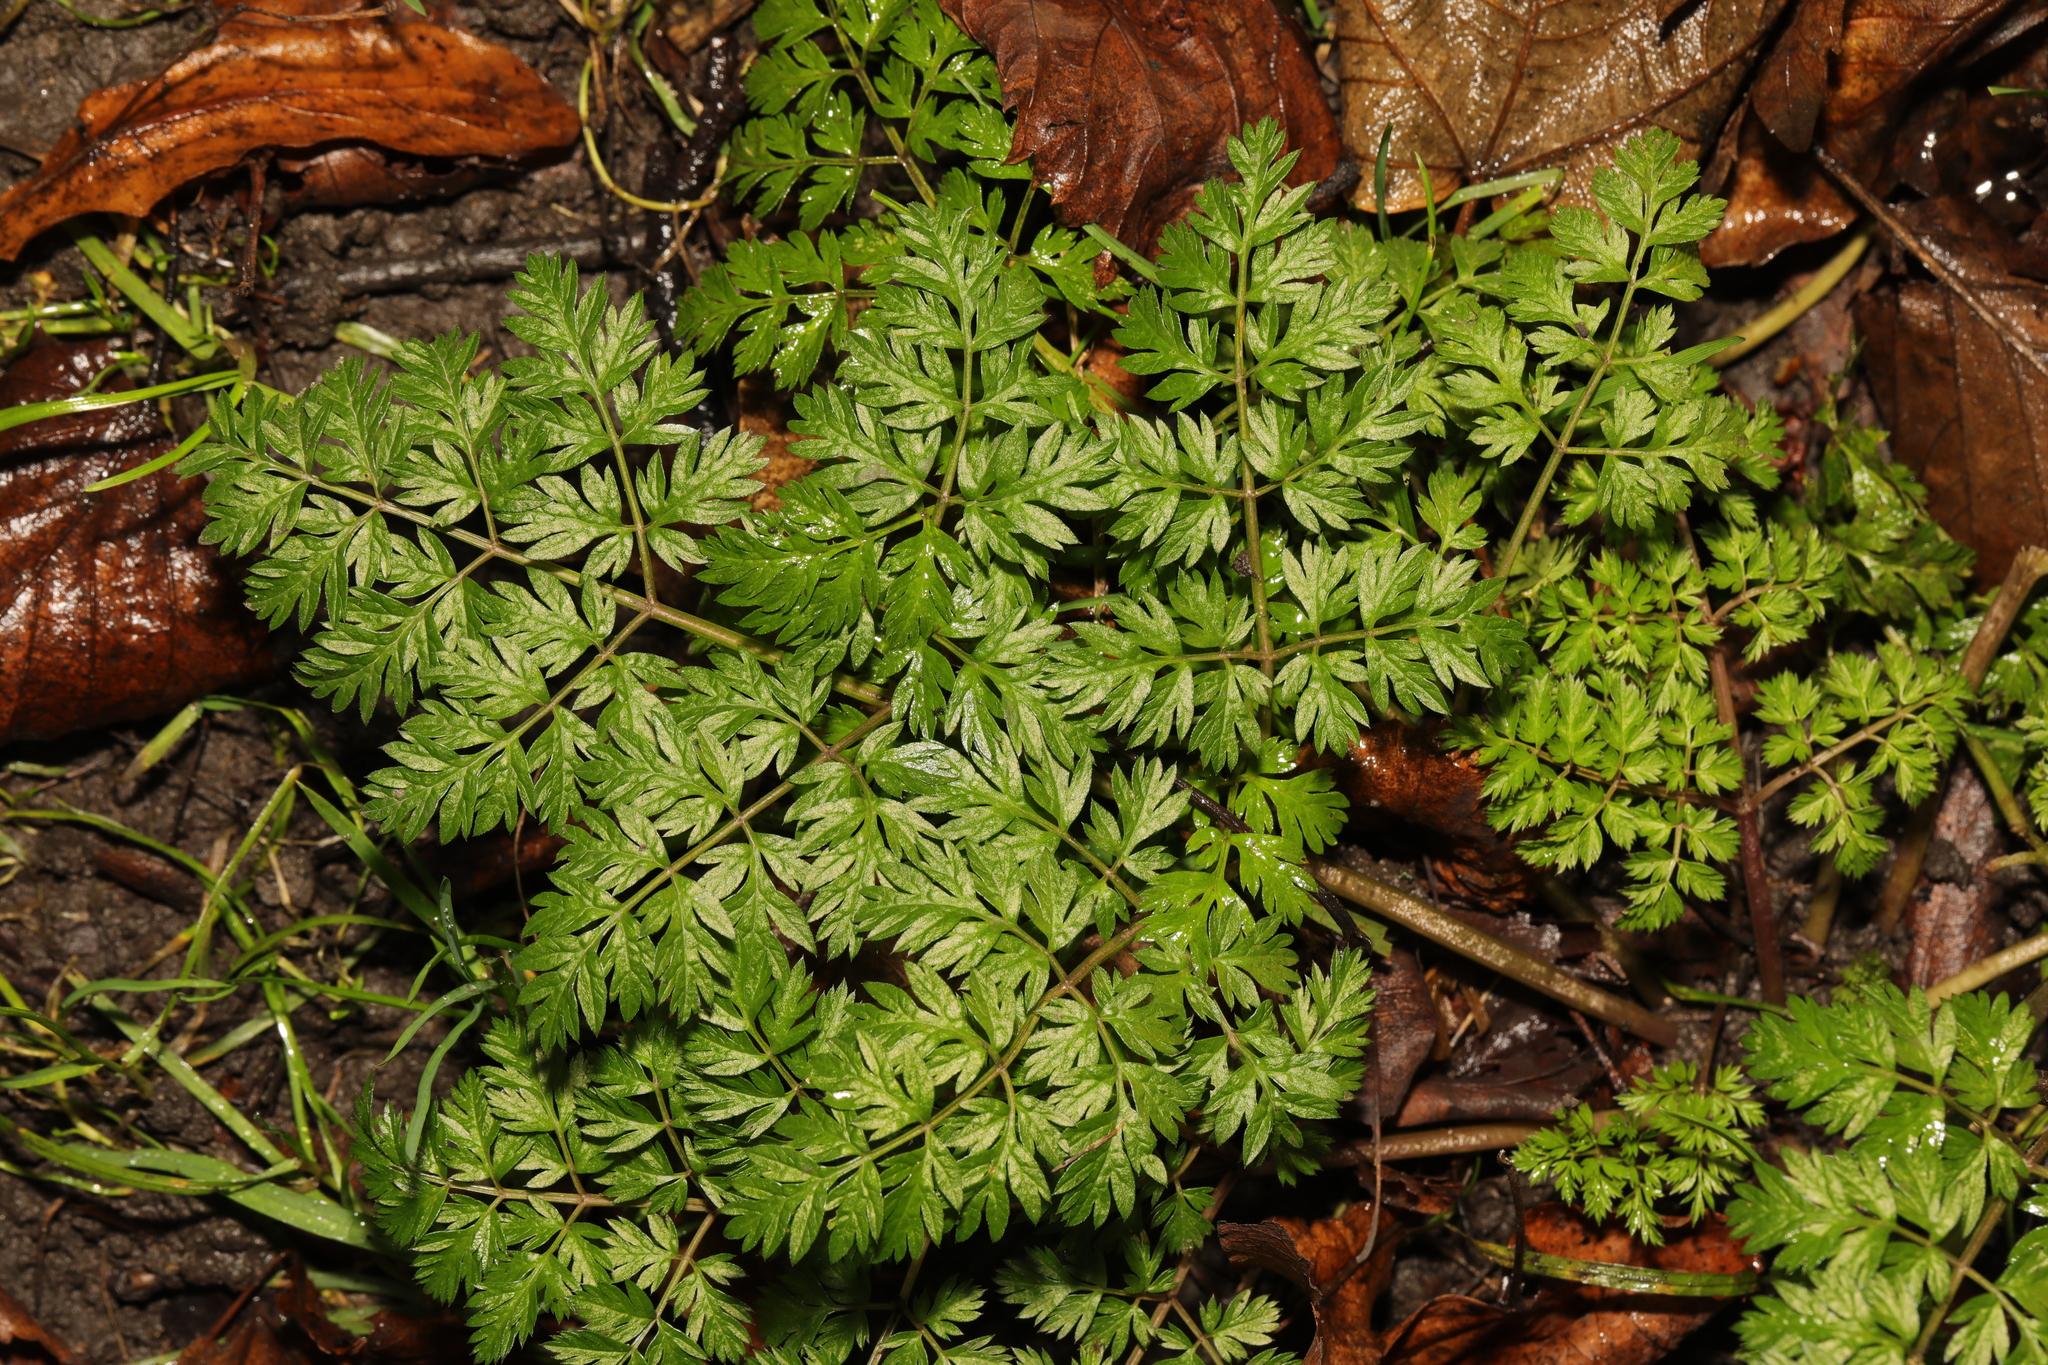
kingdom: Plantae
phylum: Tracheophyta
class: Magnoliopsida
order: Apiales
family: Apiaceae
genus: Anthriscus
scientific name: Anthriscus sylvestris
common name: Cow parsley
